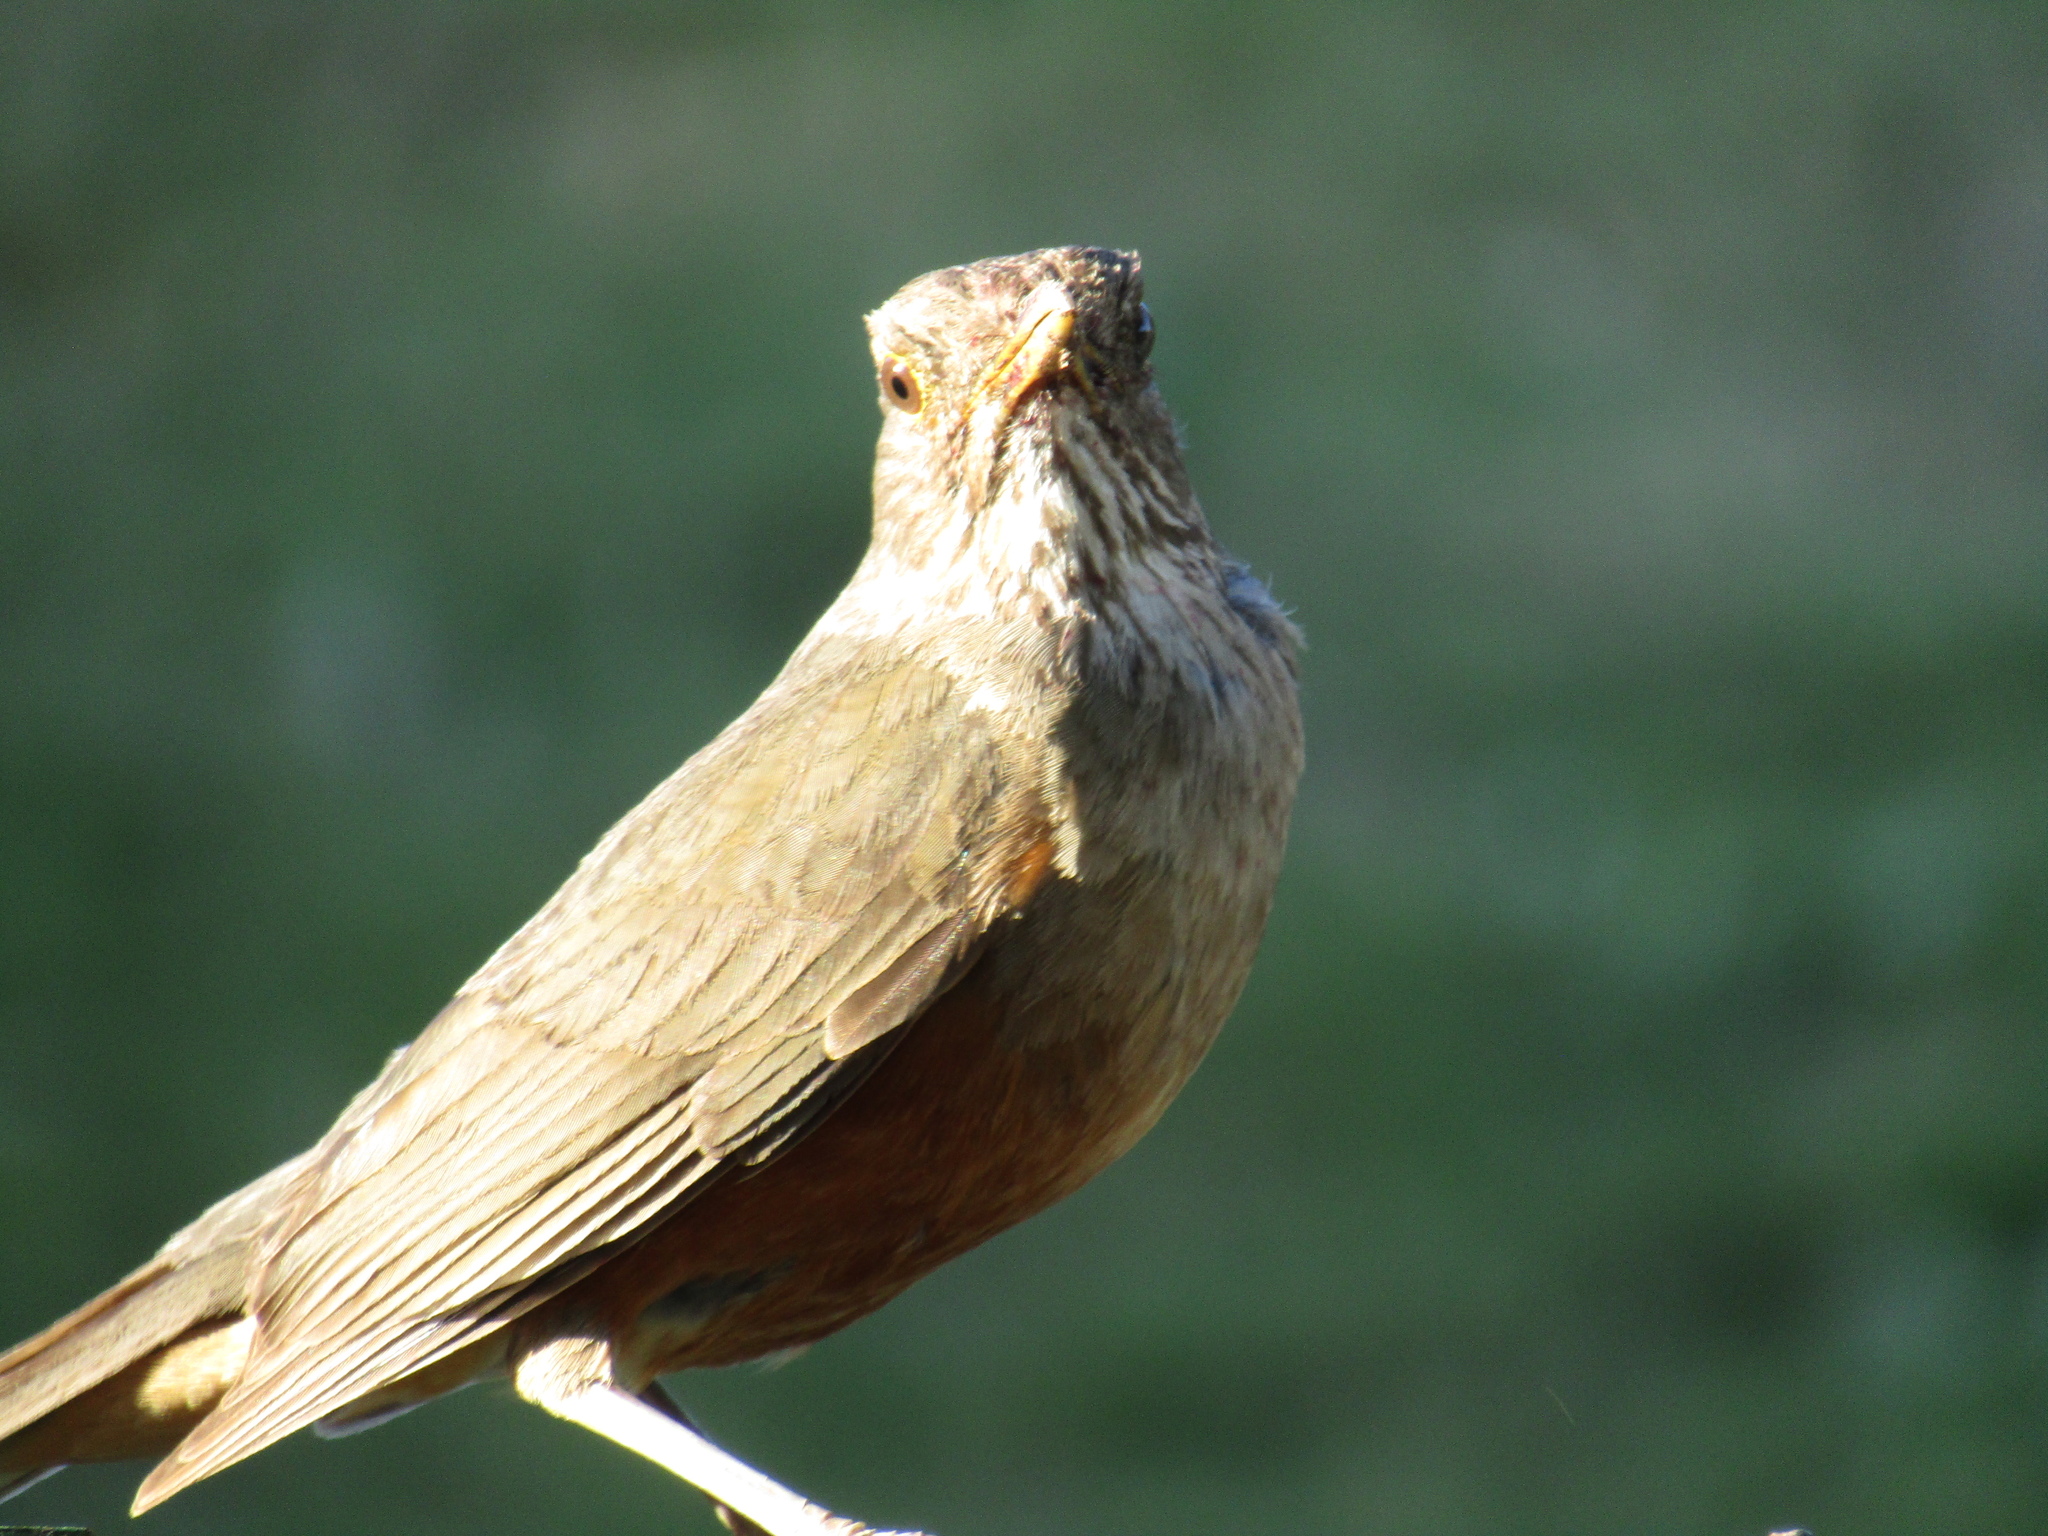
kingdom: Animalia
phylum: Chordata
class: Aves
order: Passeriformes
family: Turdidae
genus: Turdus
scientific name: Turdus rufiventris
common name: Rufous-bellied thrush
